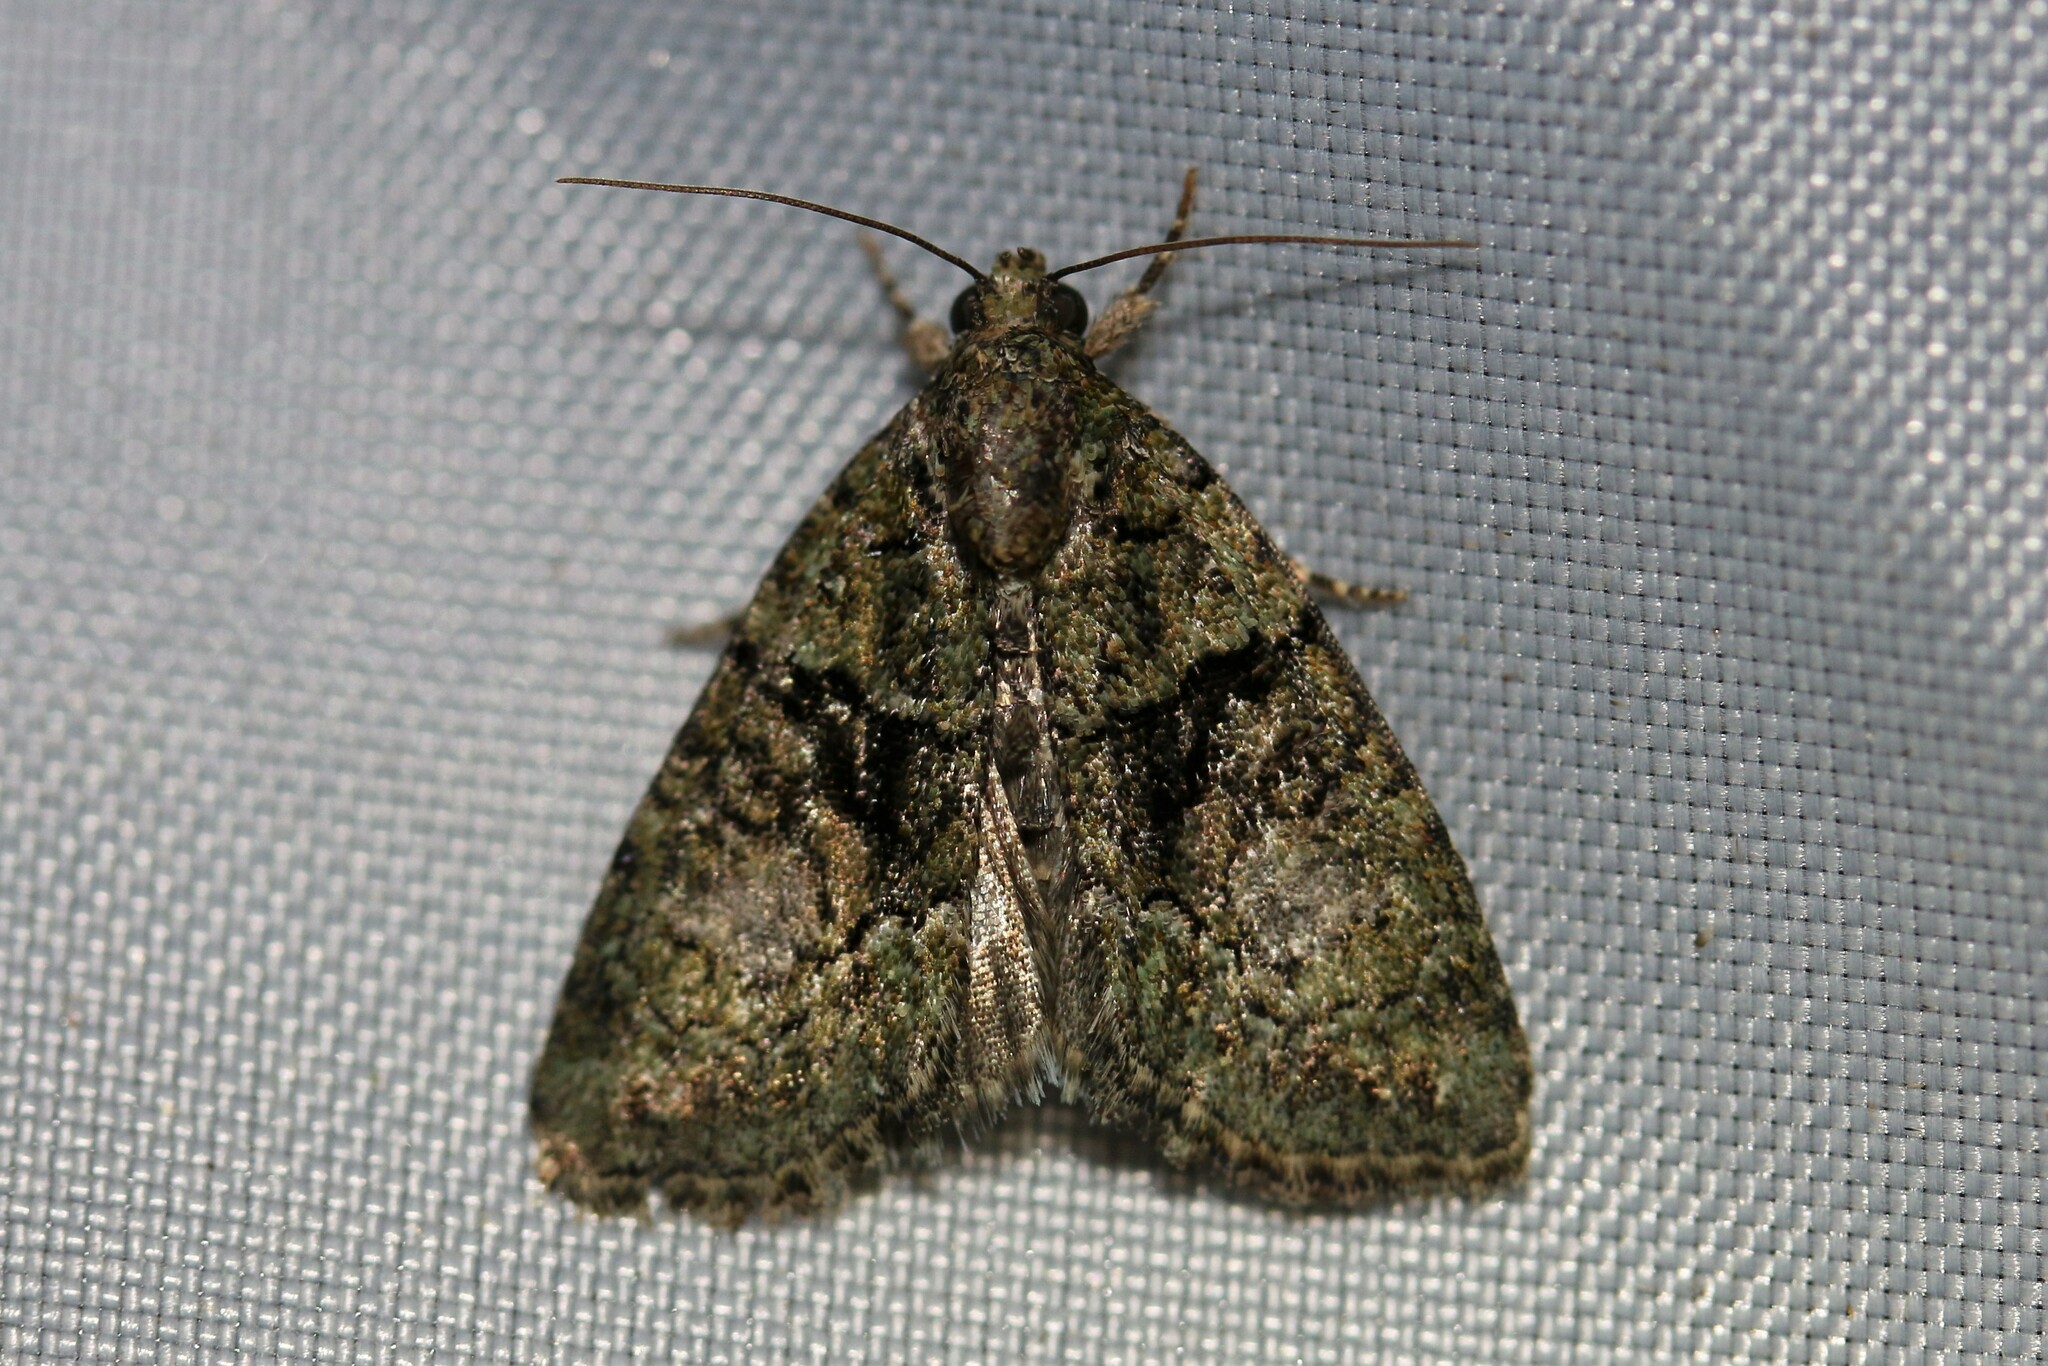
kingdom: Animalia
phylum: Arthropoda
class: Insecta
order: Lepidoptera
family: Noctuidae
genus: Cryphia
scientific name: Cryphia algae
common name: Tree-lichen beauty
